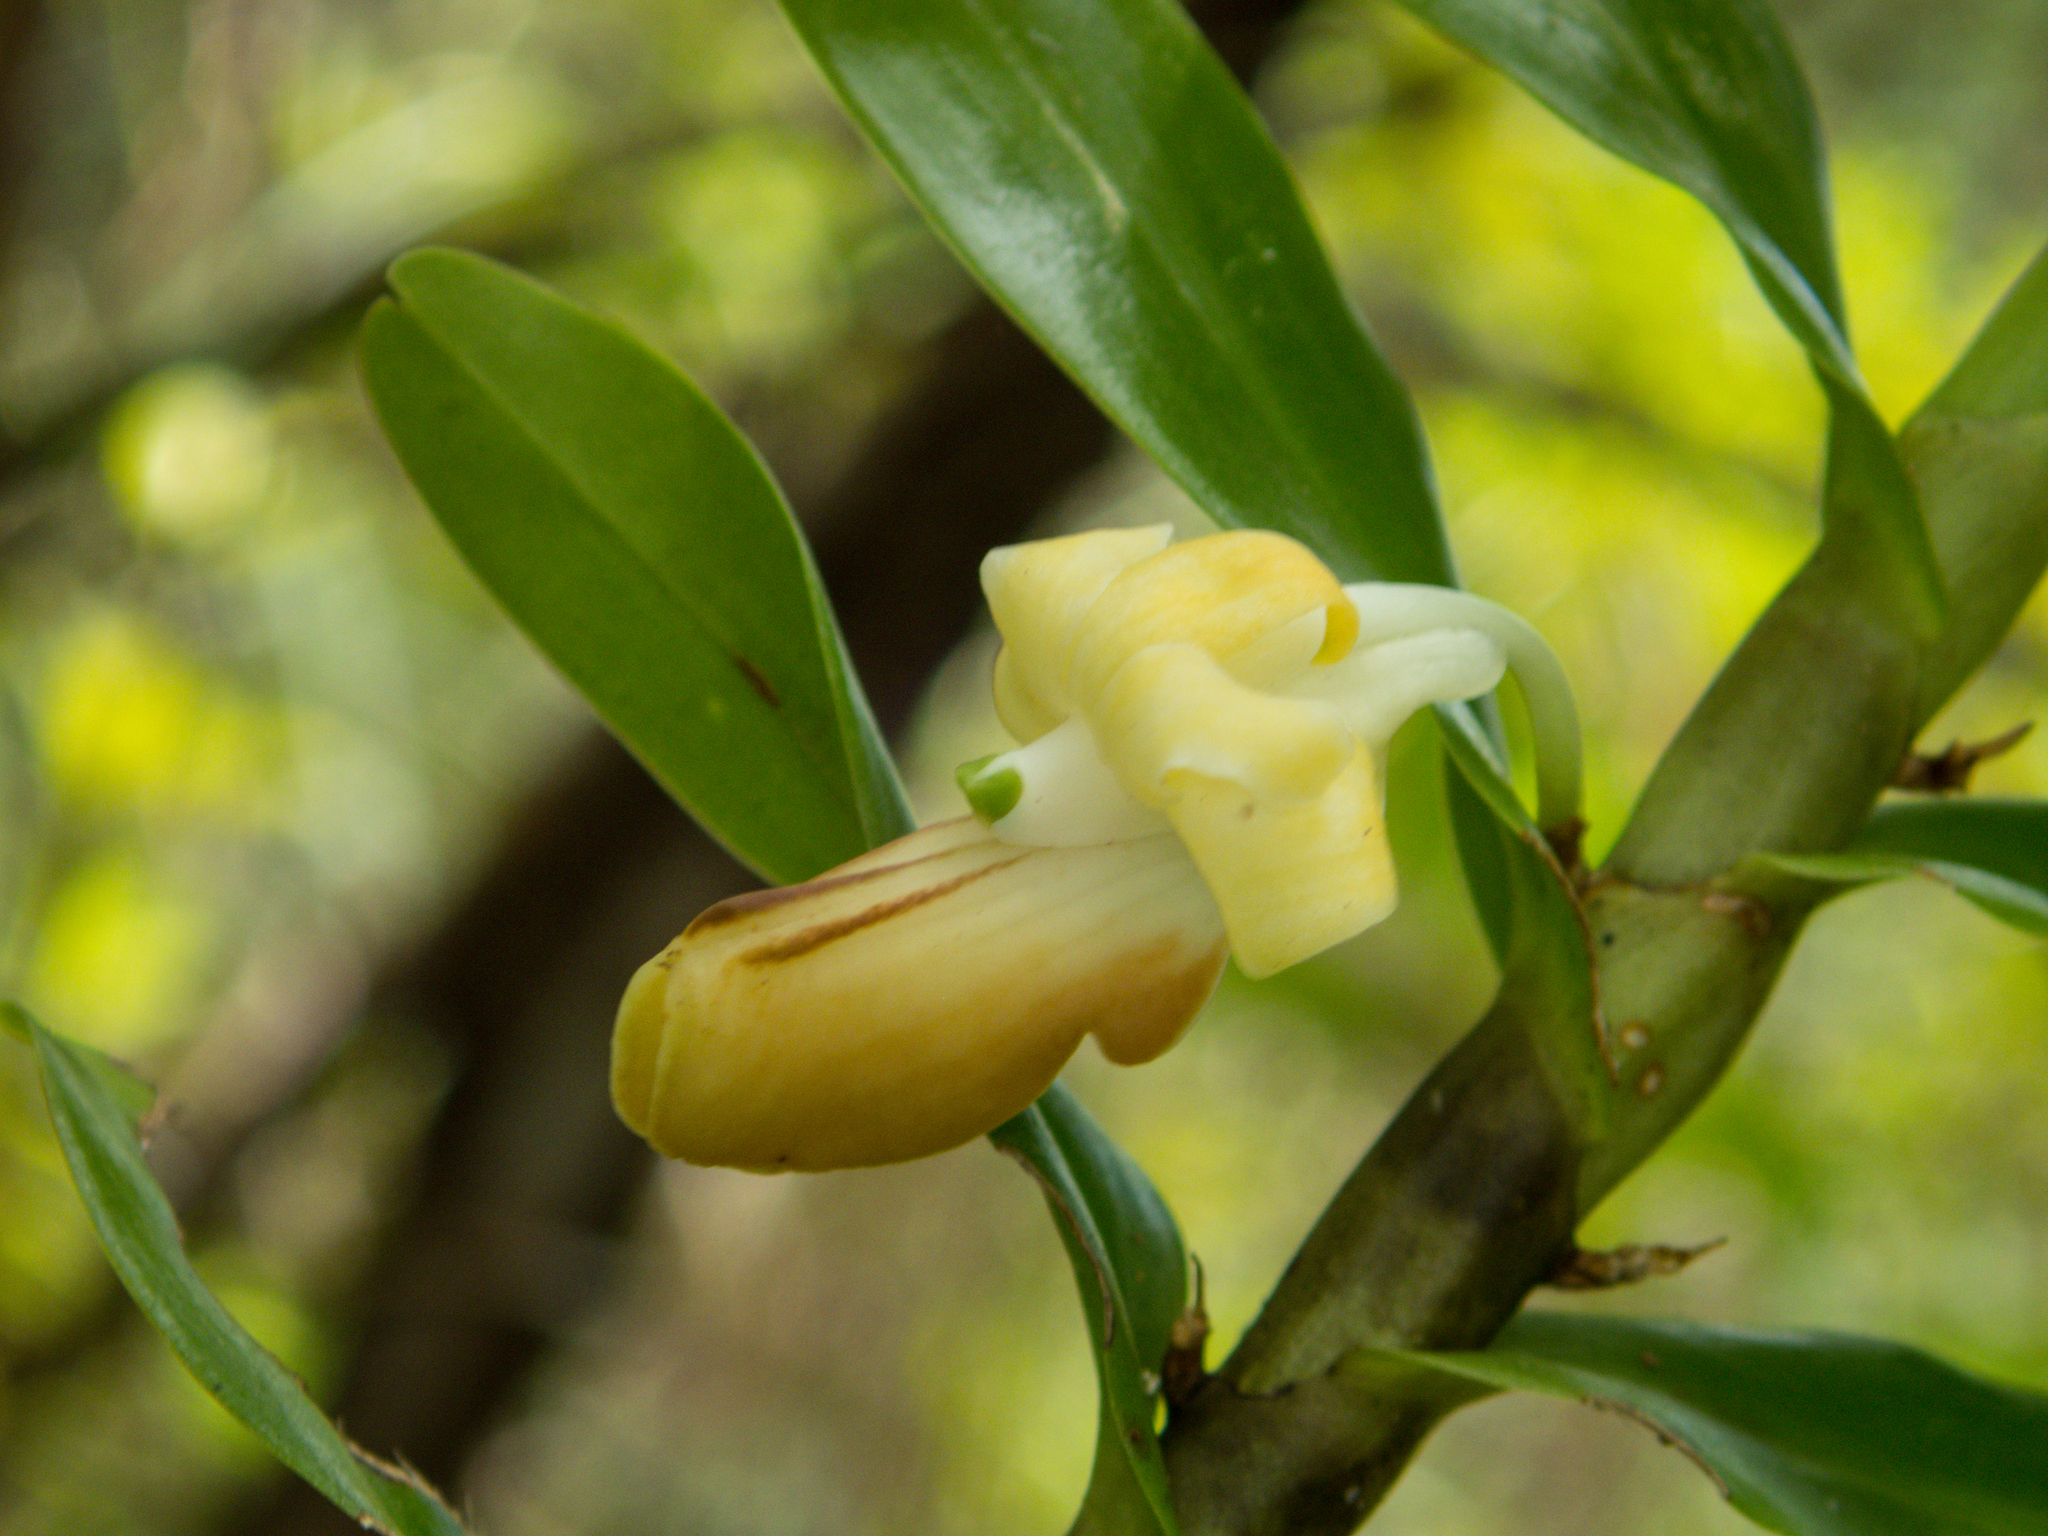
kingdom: Plantae
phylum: Tracheophyta
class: Liliopsida
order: Asparagales
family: Orchidaceae
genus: Dendrobium
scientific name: Dendrobium ellipsophyllum
